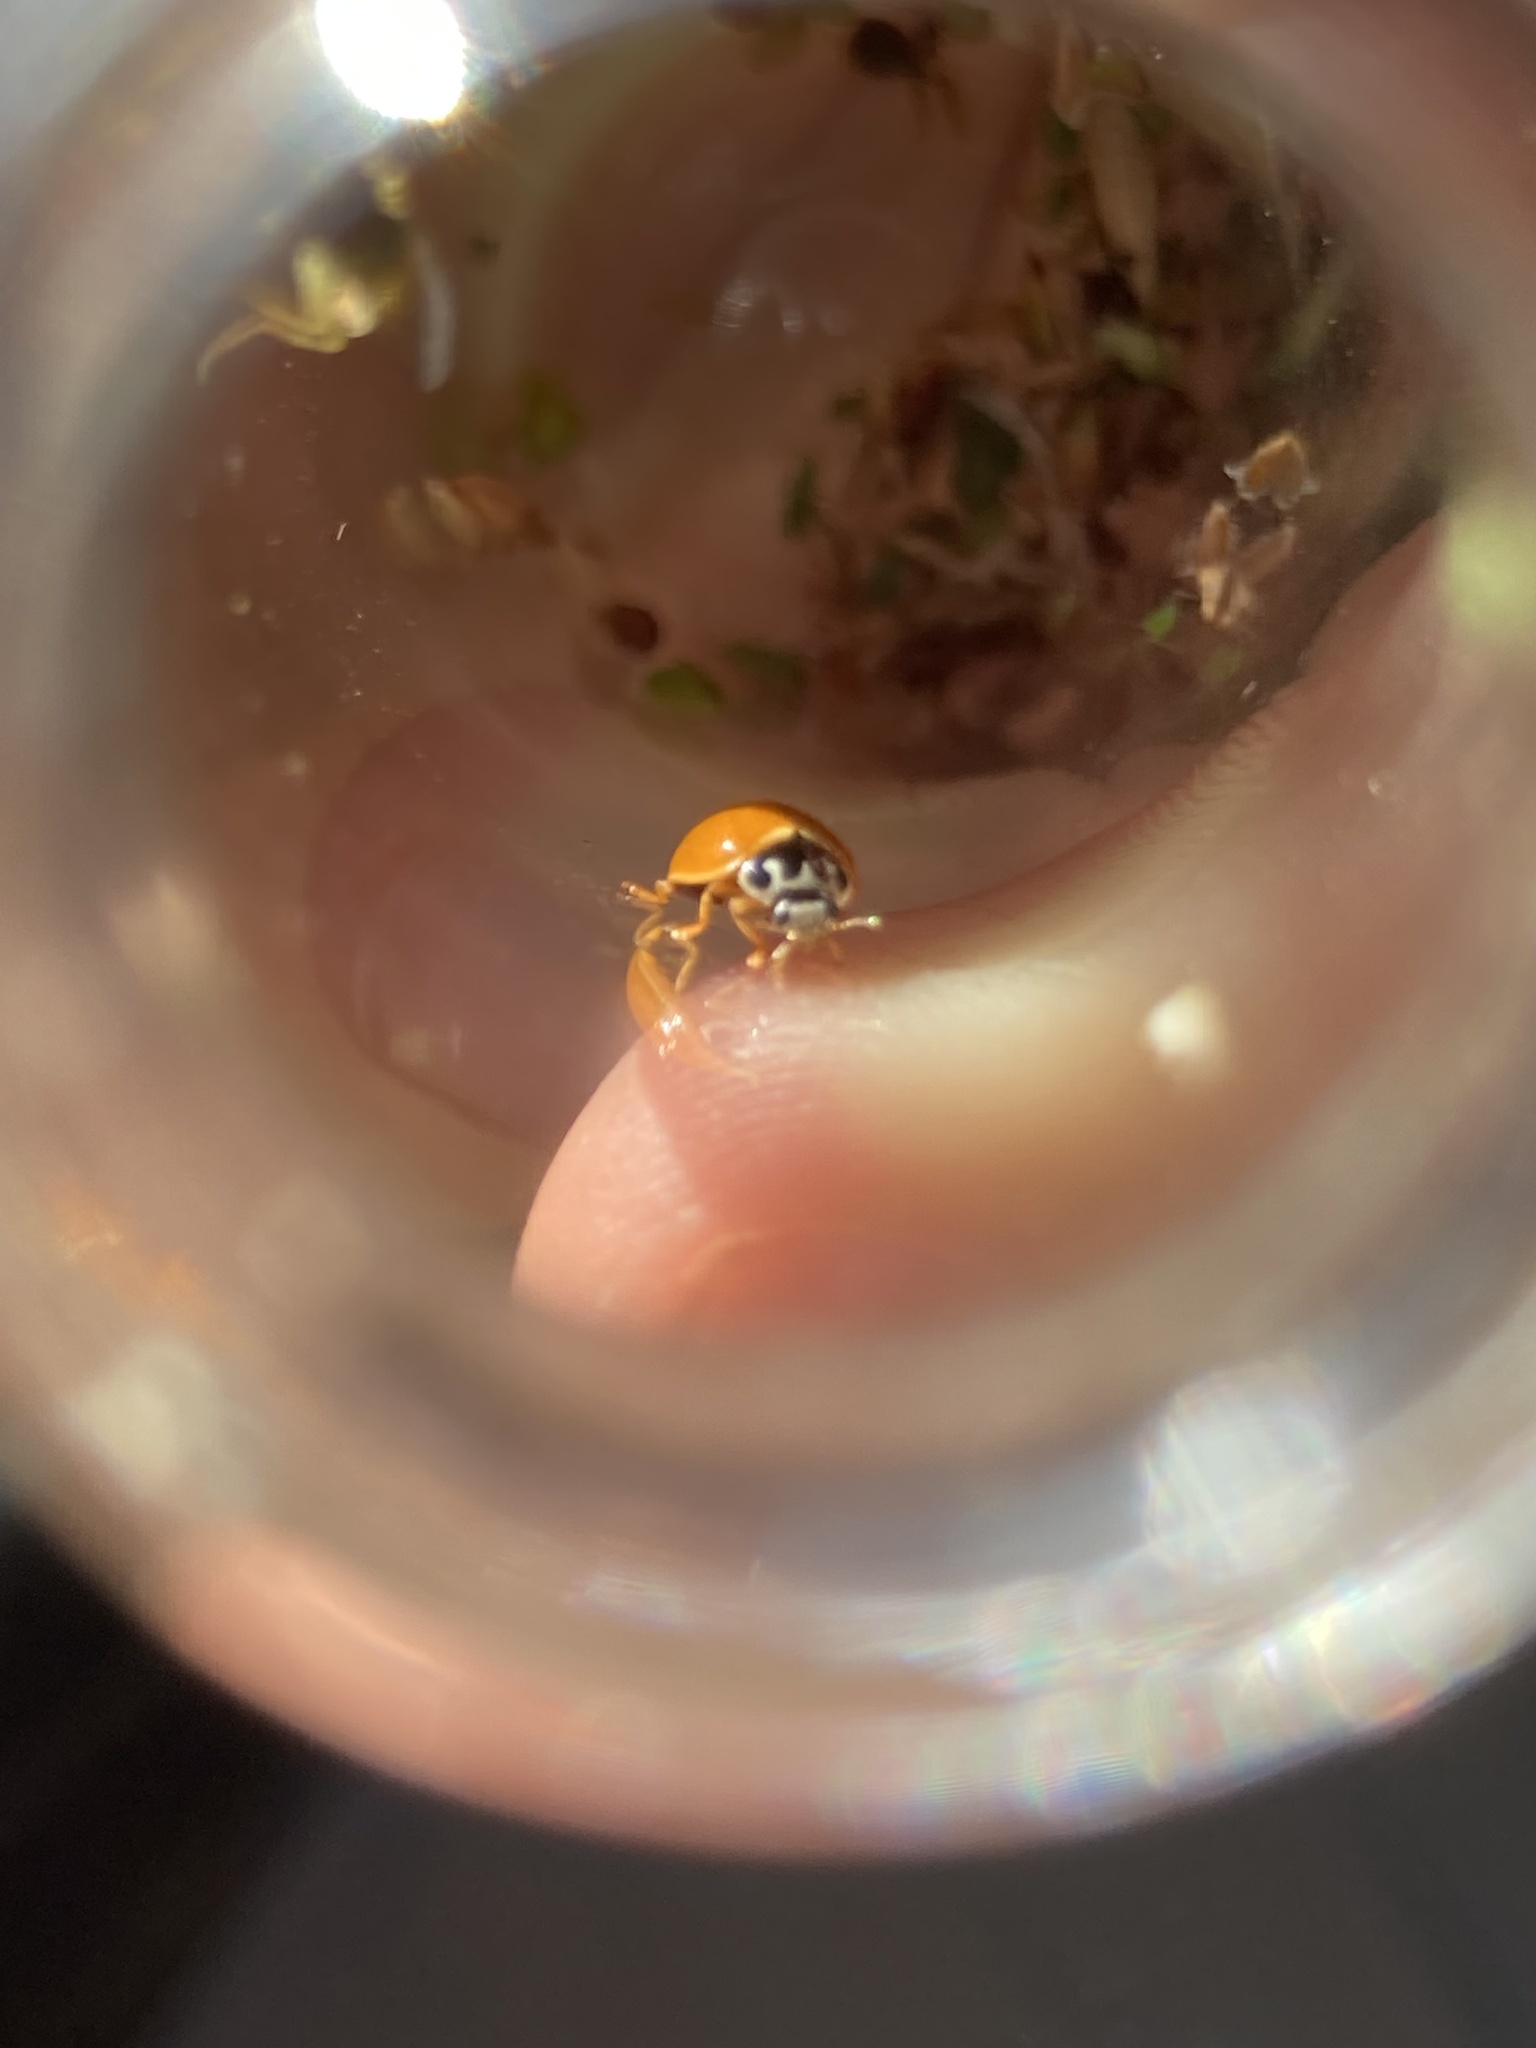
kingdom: Animalia
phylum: Arthropoda
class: Insecta
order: Coleoptera
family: Coccinellidae
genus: Cycloneda
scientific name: Cycloneda munda
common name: Polished lady beetle
